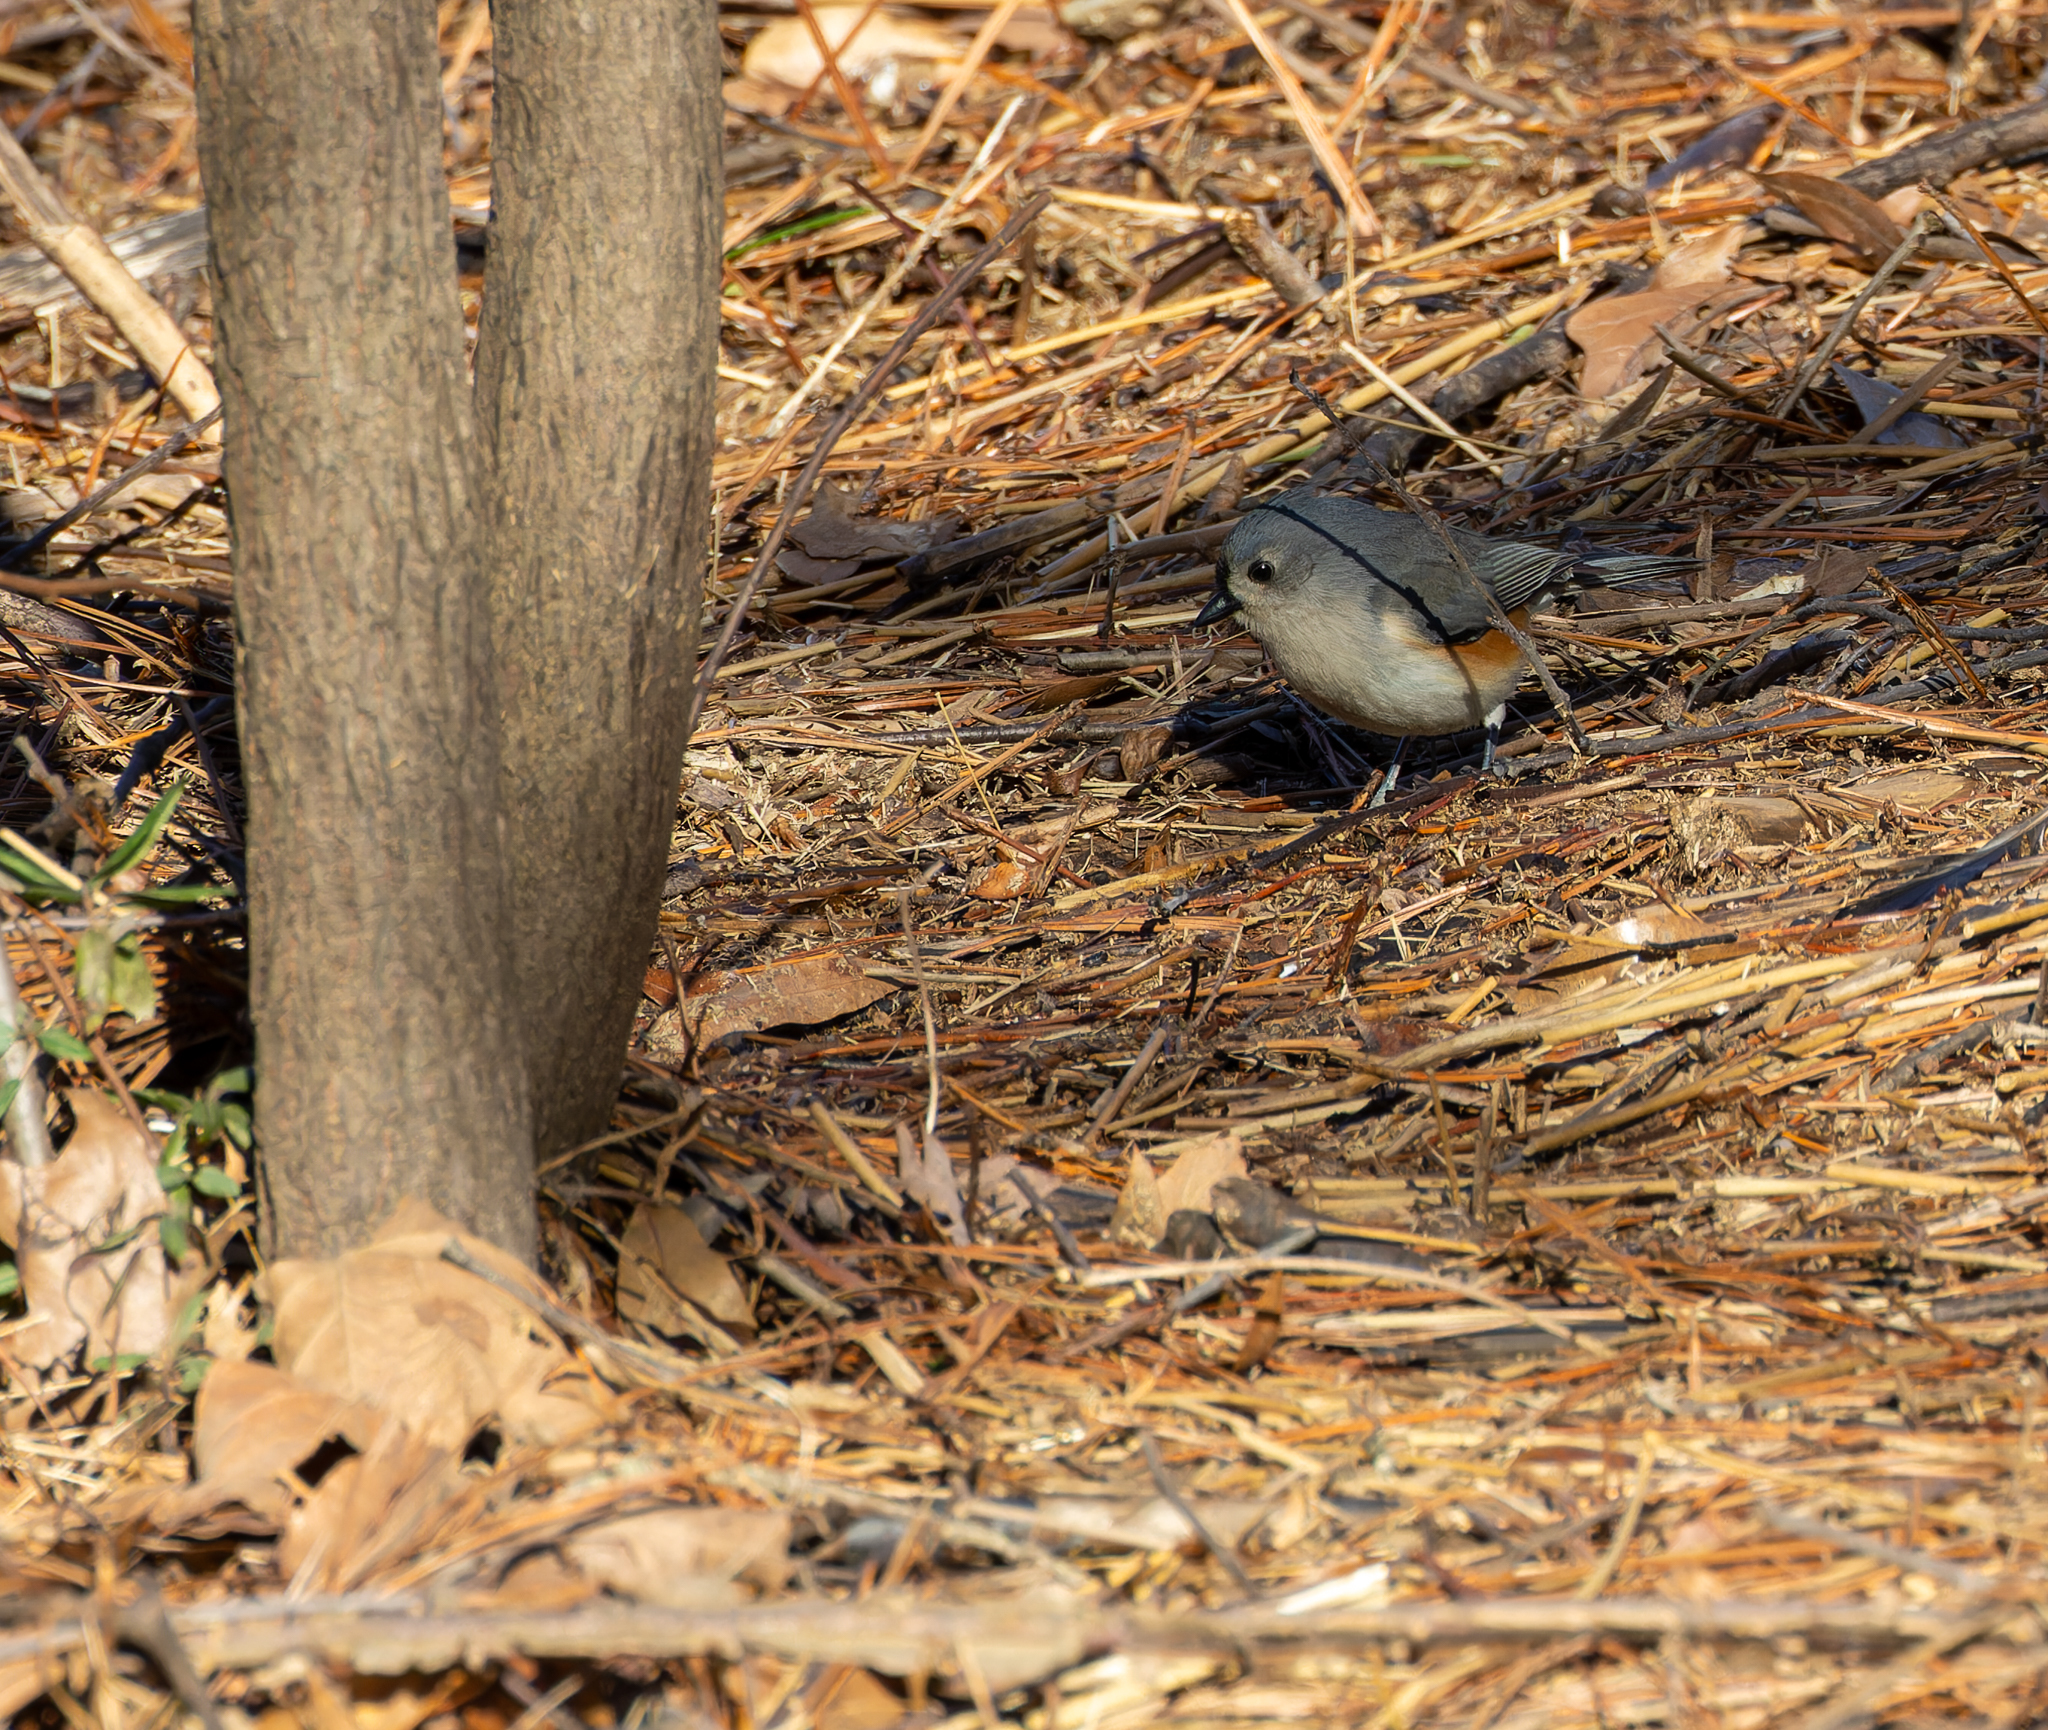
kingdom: Animalia
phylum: Chordata
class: Aves
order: Passeriformes
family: Paridae
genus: Baeolophus
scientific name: Baeolophus bicolor
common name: Tufted titmouse
